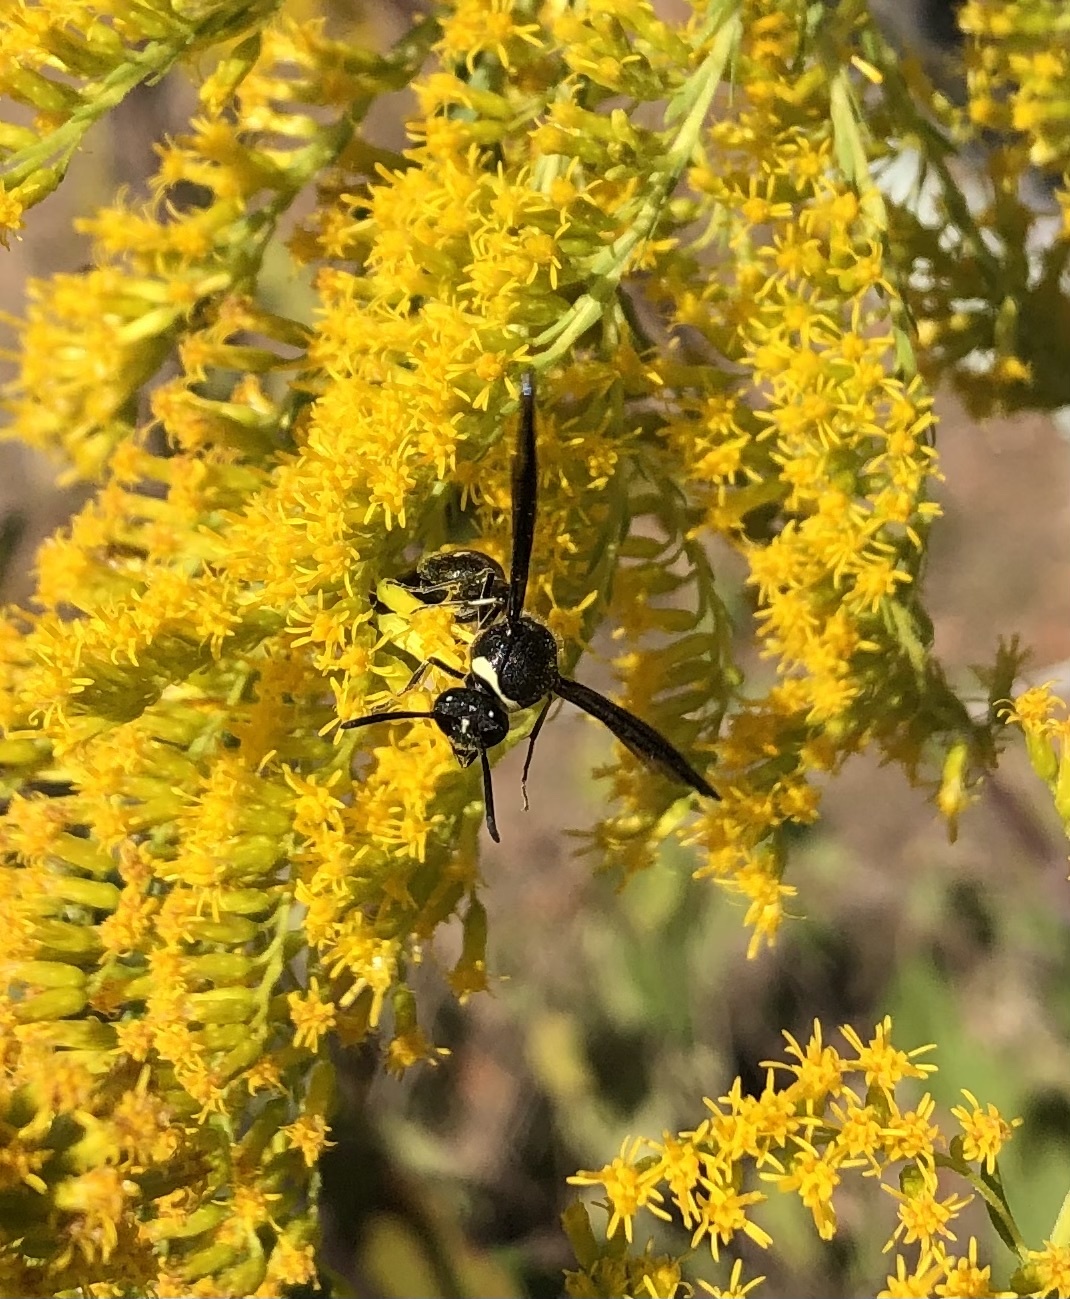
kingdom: Animalia
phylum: Arthropoda
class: Insecta
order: Hymenoptera
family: Vespidae
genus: Eumenes
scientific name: Eumenes fraternus
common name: Fraternal potter wasp
